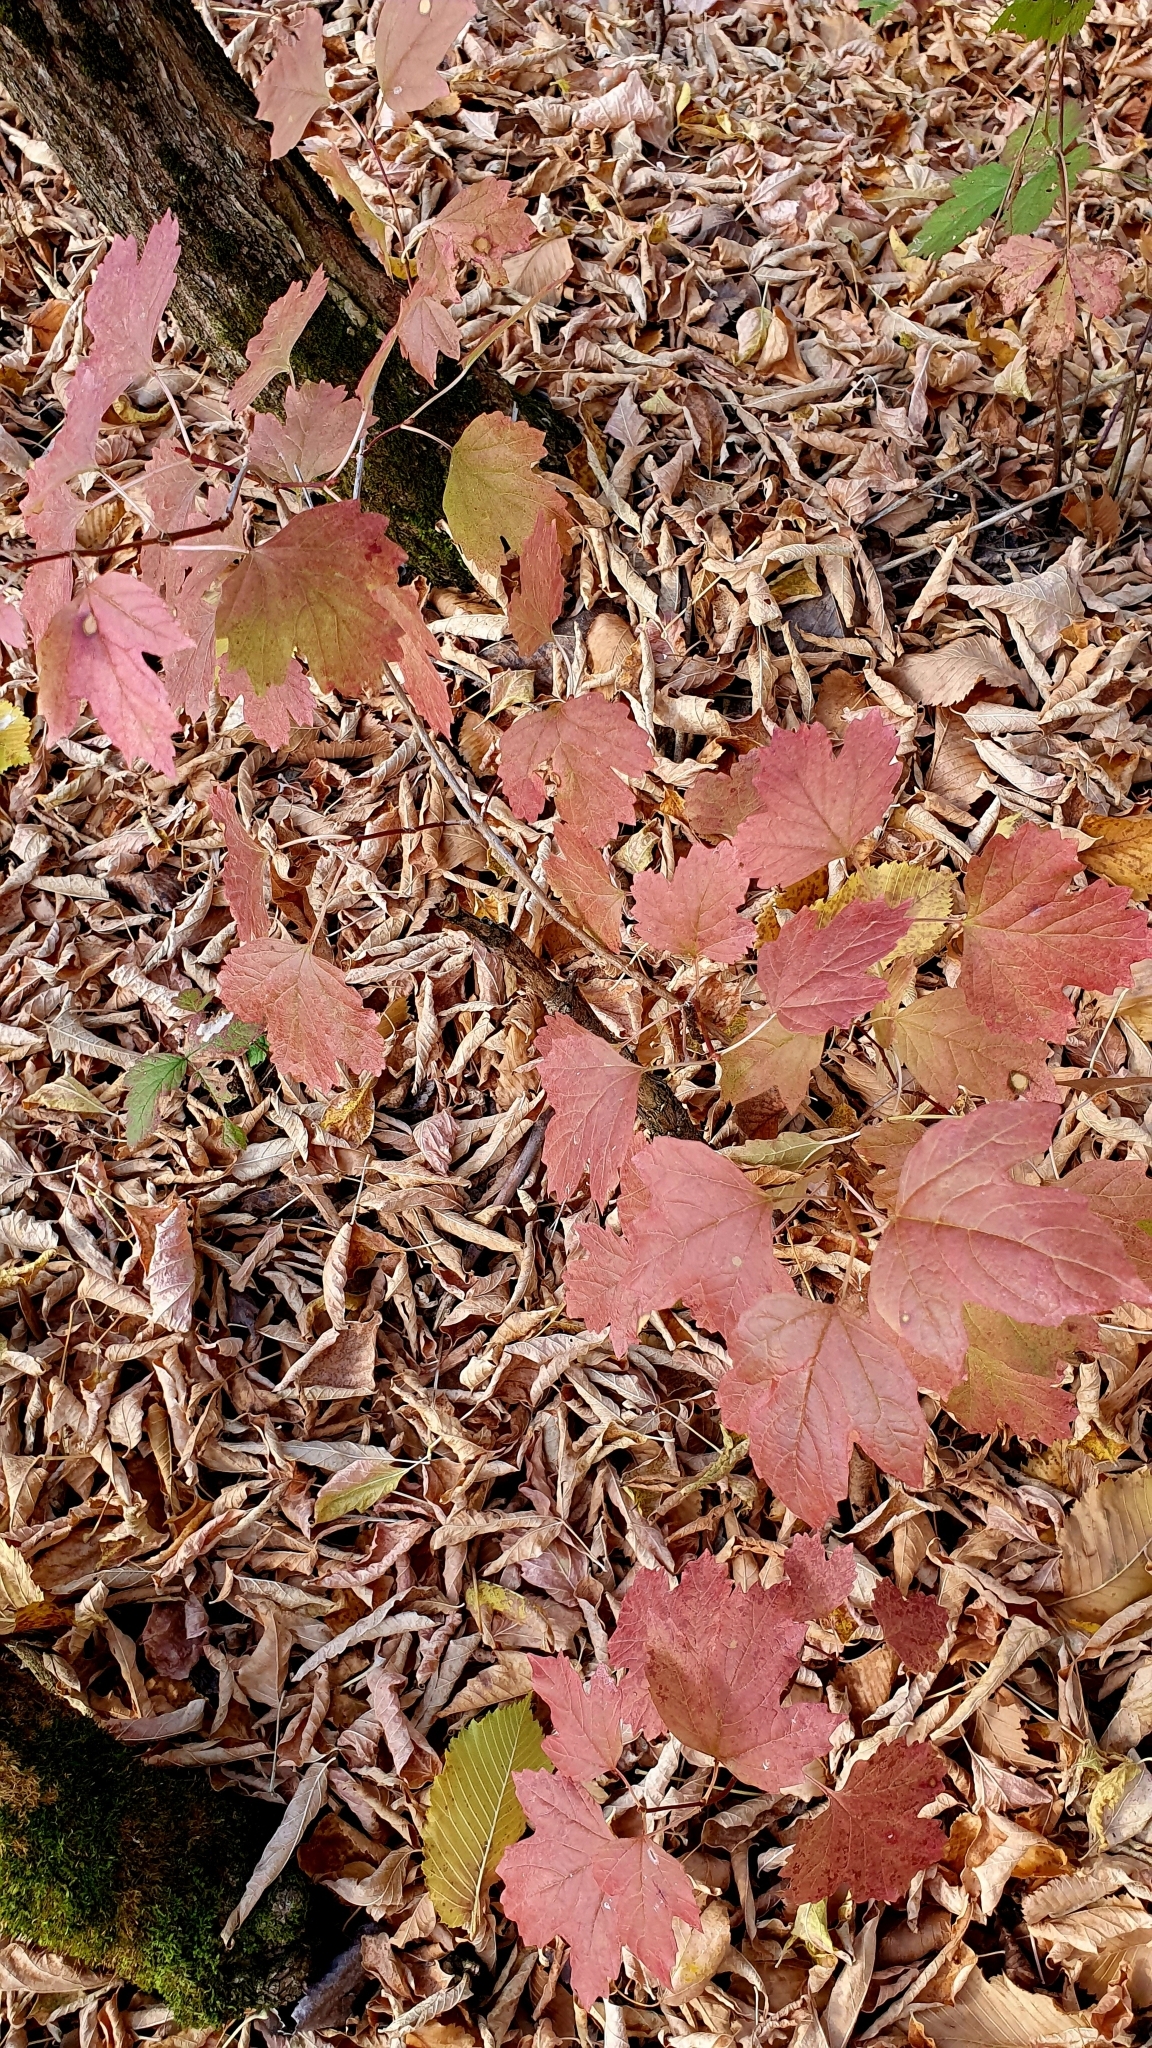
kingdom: Plantae
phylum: Tracheophyta
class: Magnoliopsida
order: Dipsacales
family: Viburnaceae
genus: Viburnum
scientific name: Viburnum opulus
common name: Guelder-rose
